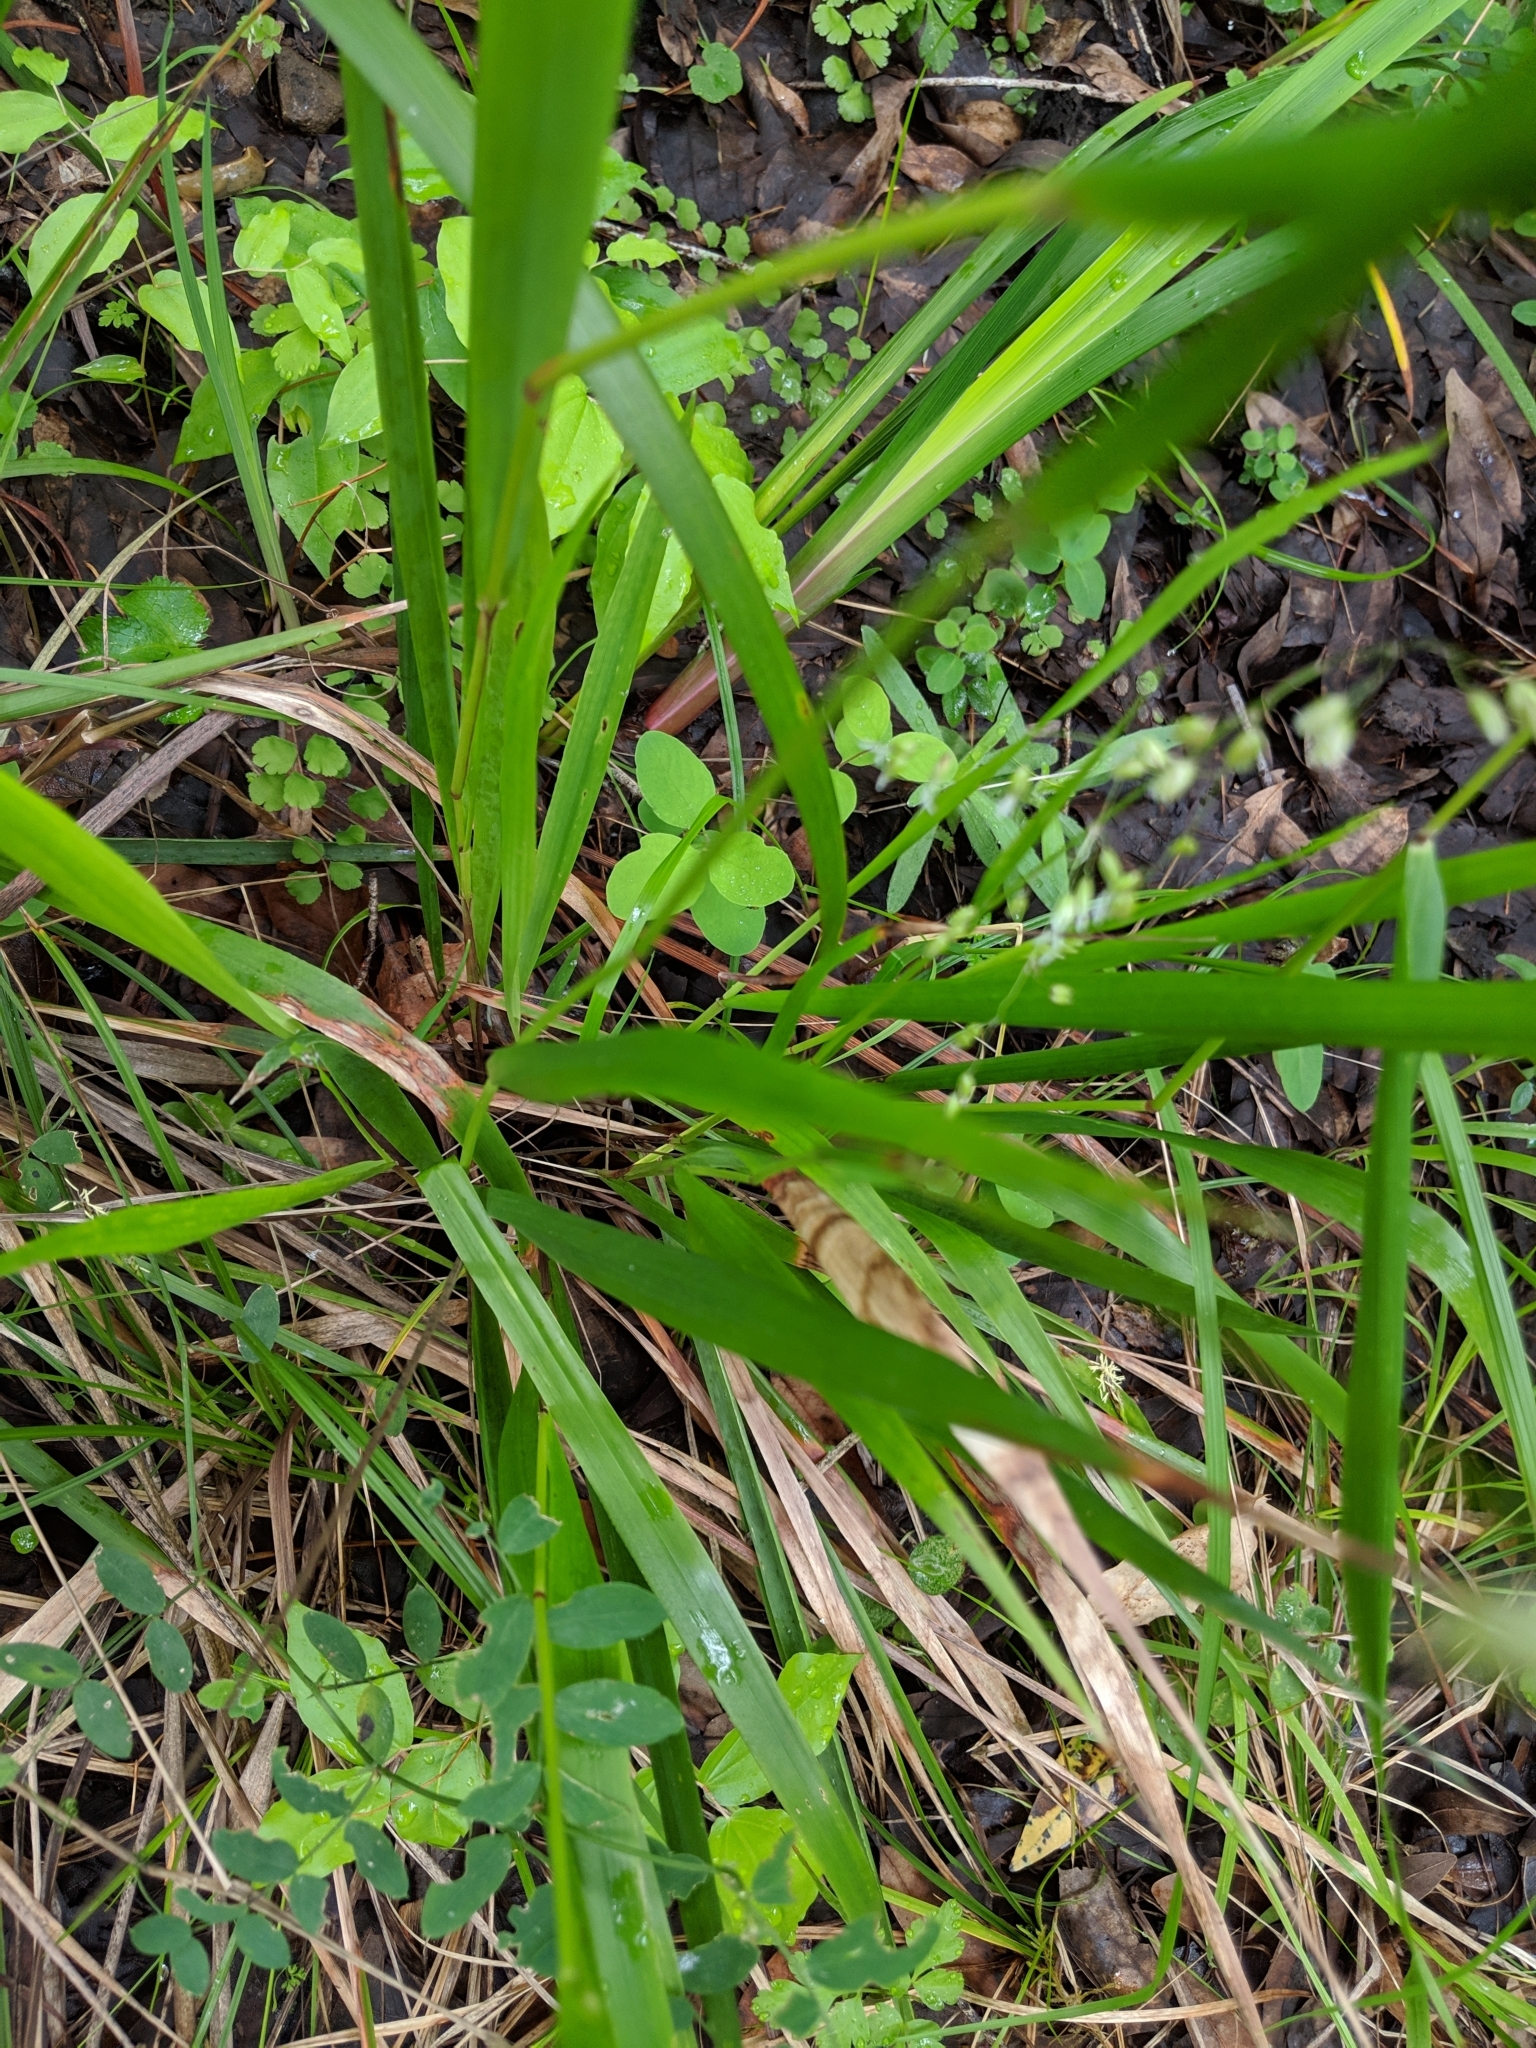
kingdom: Plantae
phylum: Tracheophyta
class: Liliopsida
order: Poales
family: Poaceae
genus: Anthoxanthum
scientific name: Anthoxanthum occidentale
